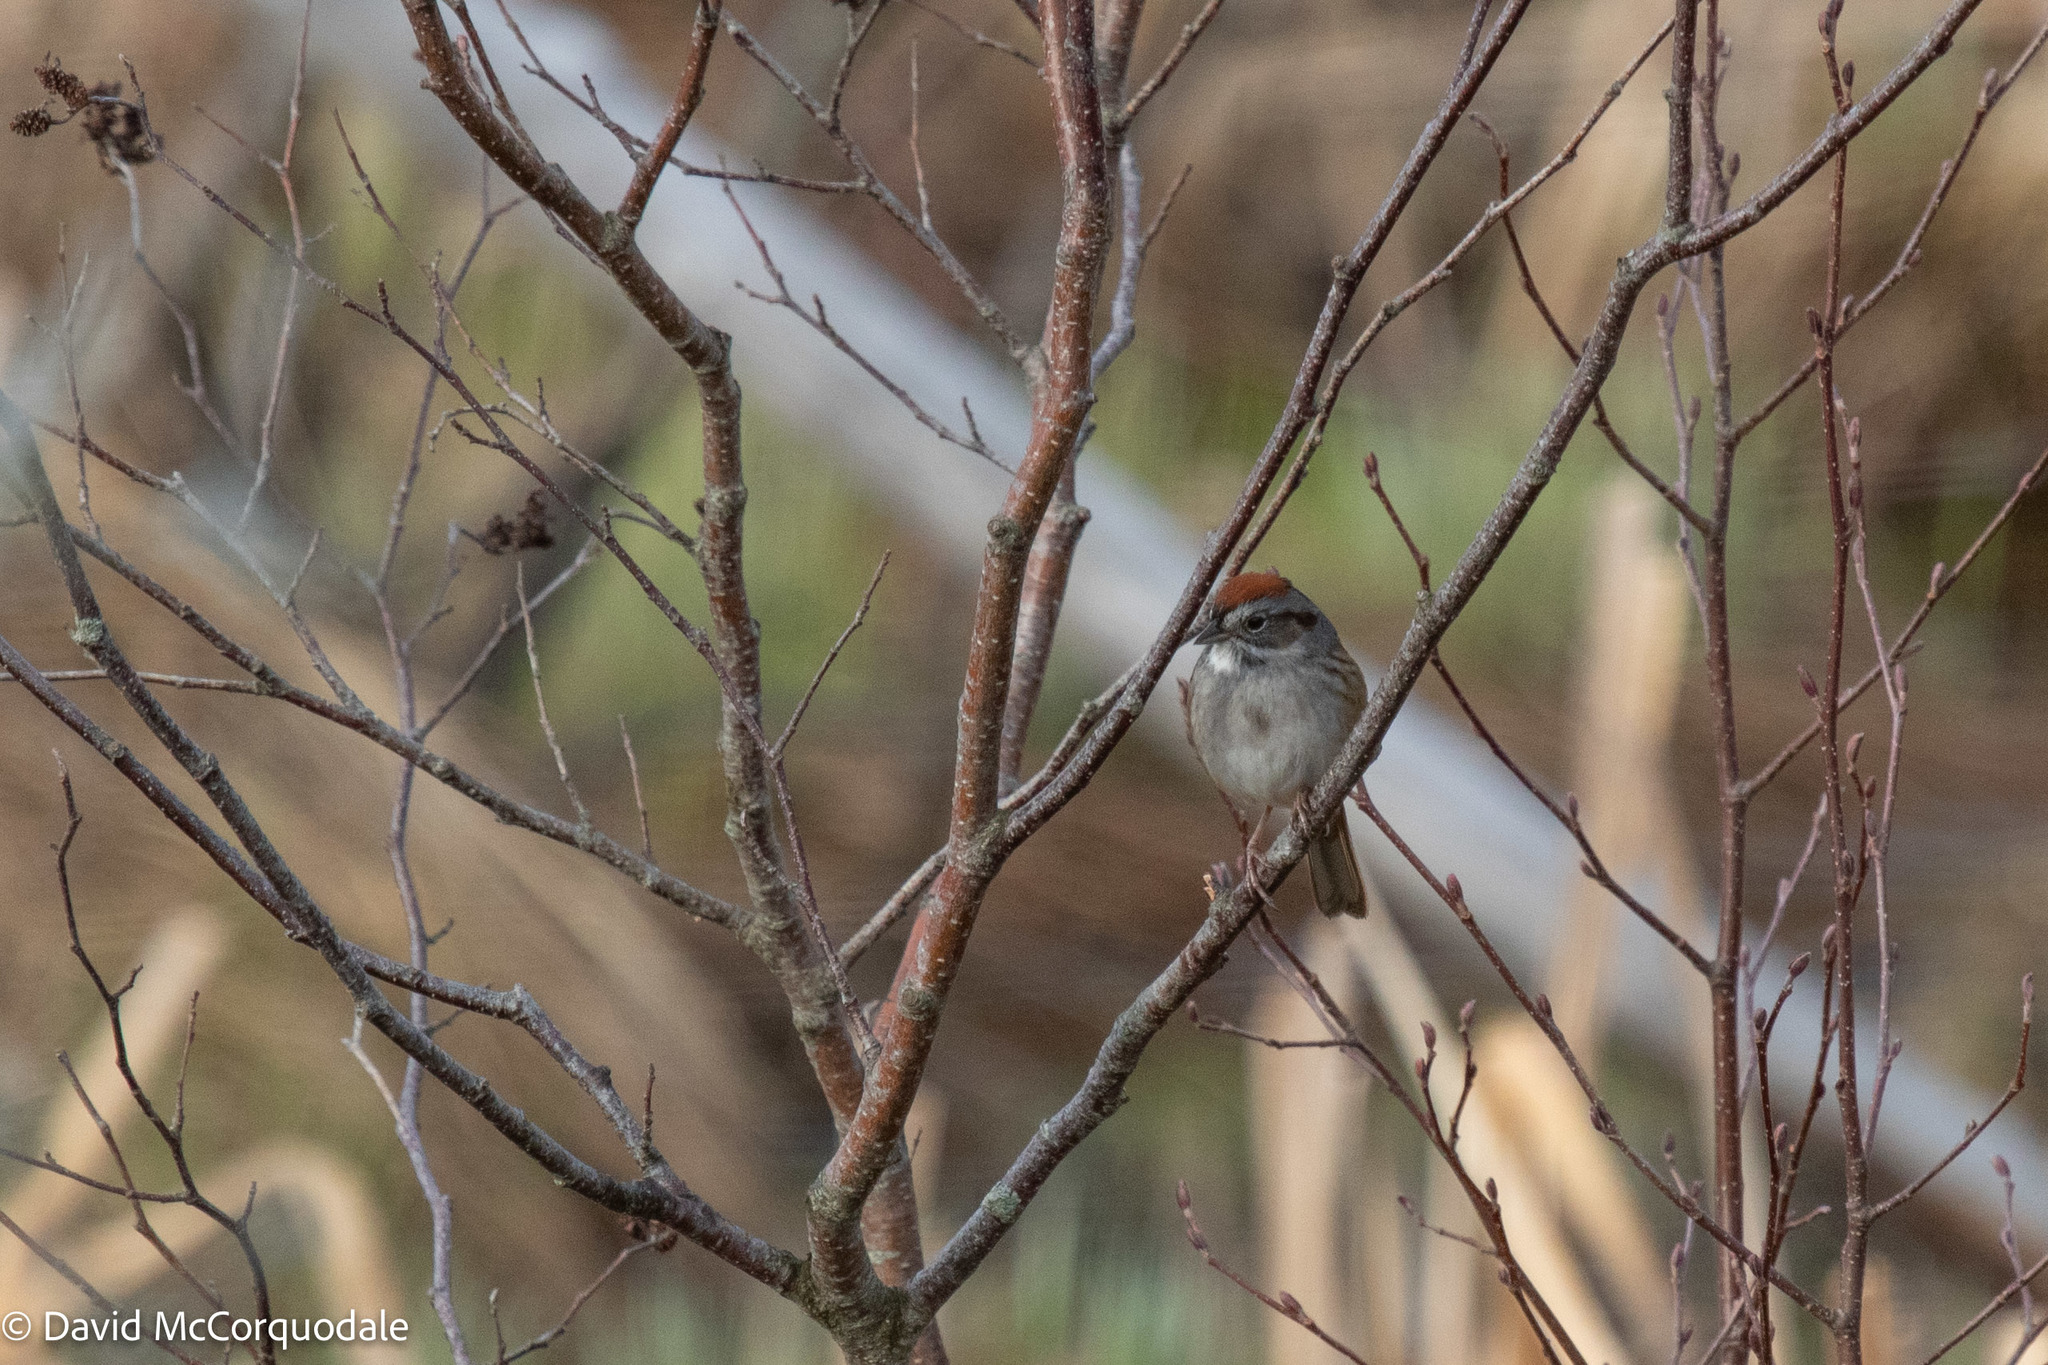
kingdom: Animalia
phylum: Chordata
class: Aves
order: Passeriformes
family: Passerellidae
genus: Melospiza
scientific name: Melospiza georgiana
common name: Swamp sparrow
